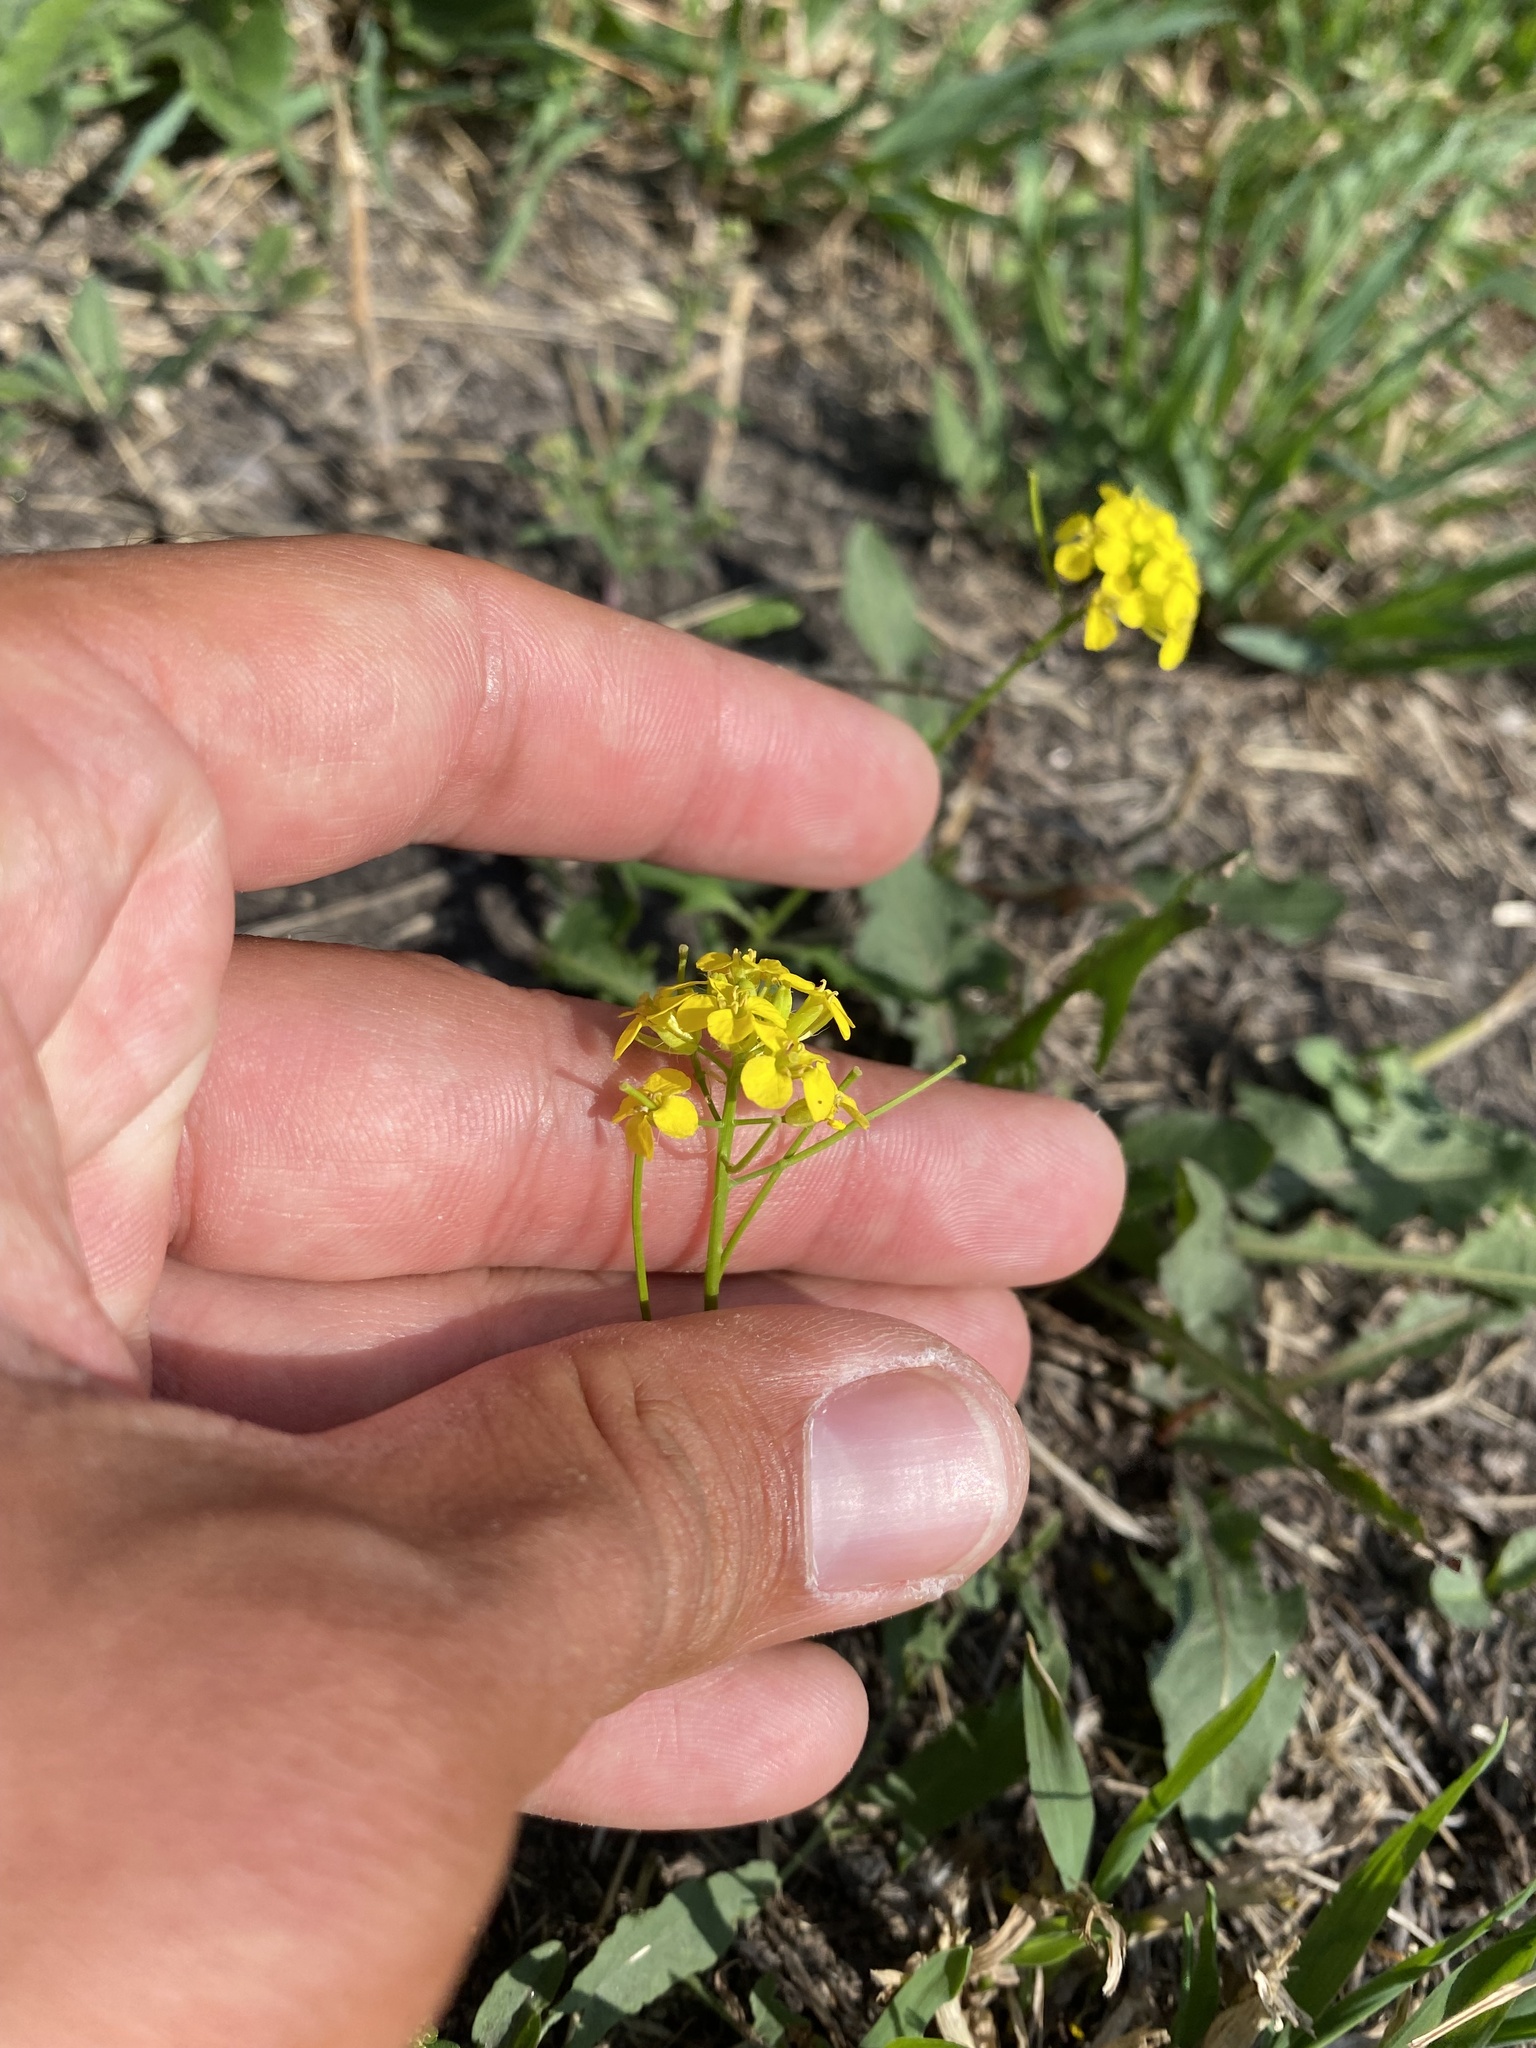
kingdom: Plantae
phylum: Tracheophyta
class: Magnoliopsida
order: Brassicales
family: Brassicaceae
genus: Sisymbrium
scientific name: Sisymbrium loeselii
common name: False london-rocket
